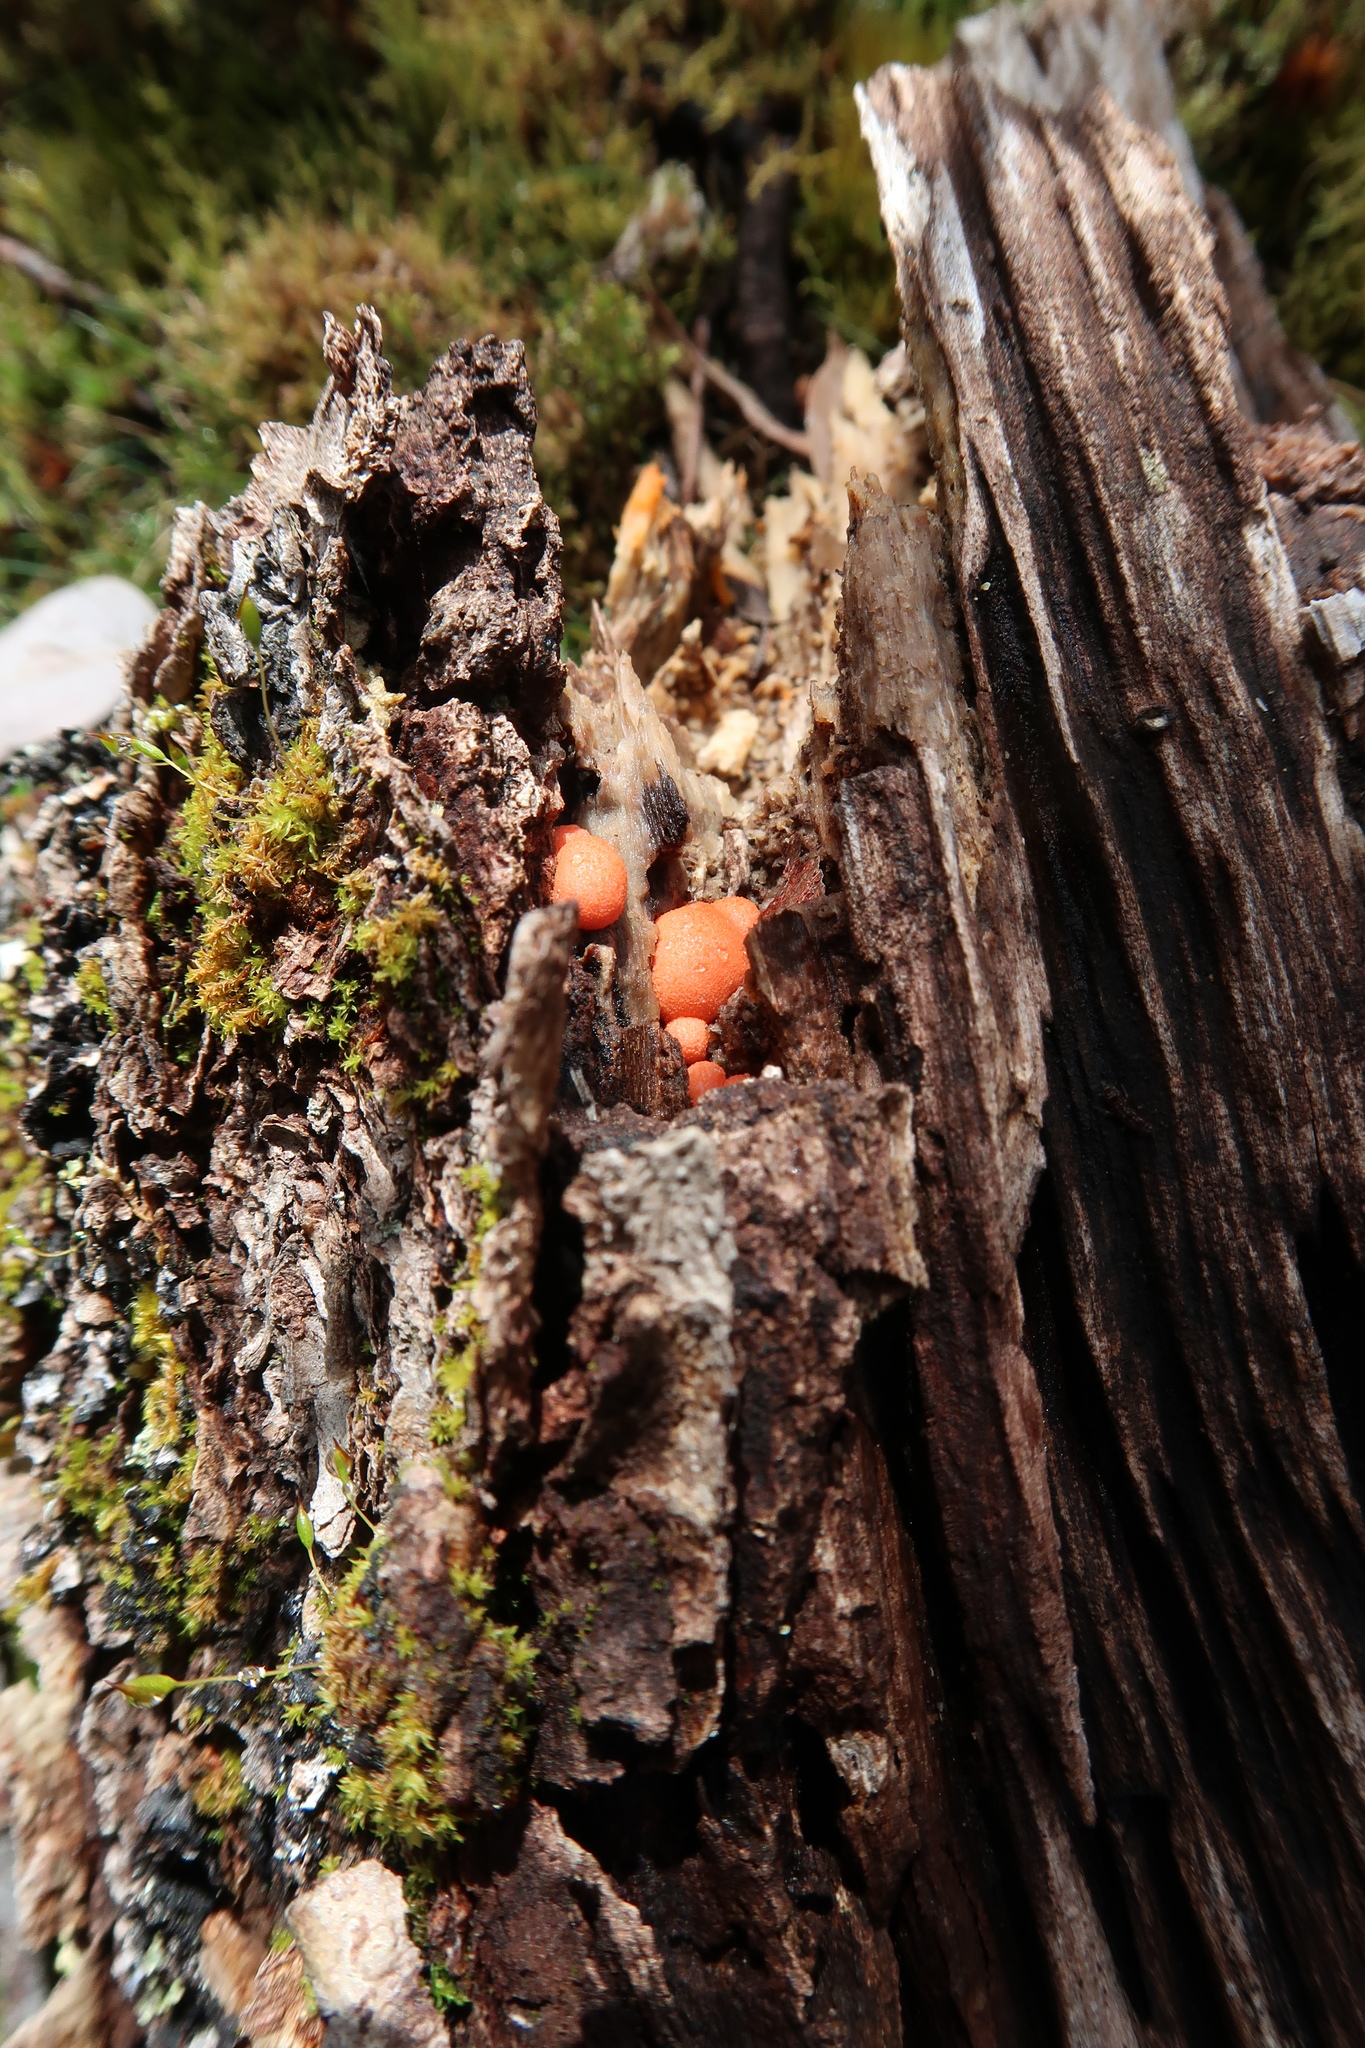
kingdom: Protozoa
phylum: Mycetozoa
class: Myxomycetes
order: Cribrariales
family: Tubiferaceae
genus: Lycogala
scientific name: Lycogala epidendrum
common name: Wolf's milk
